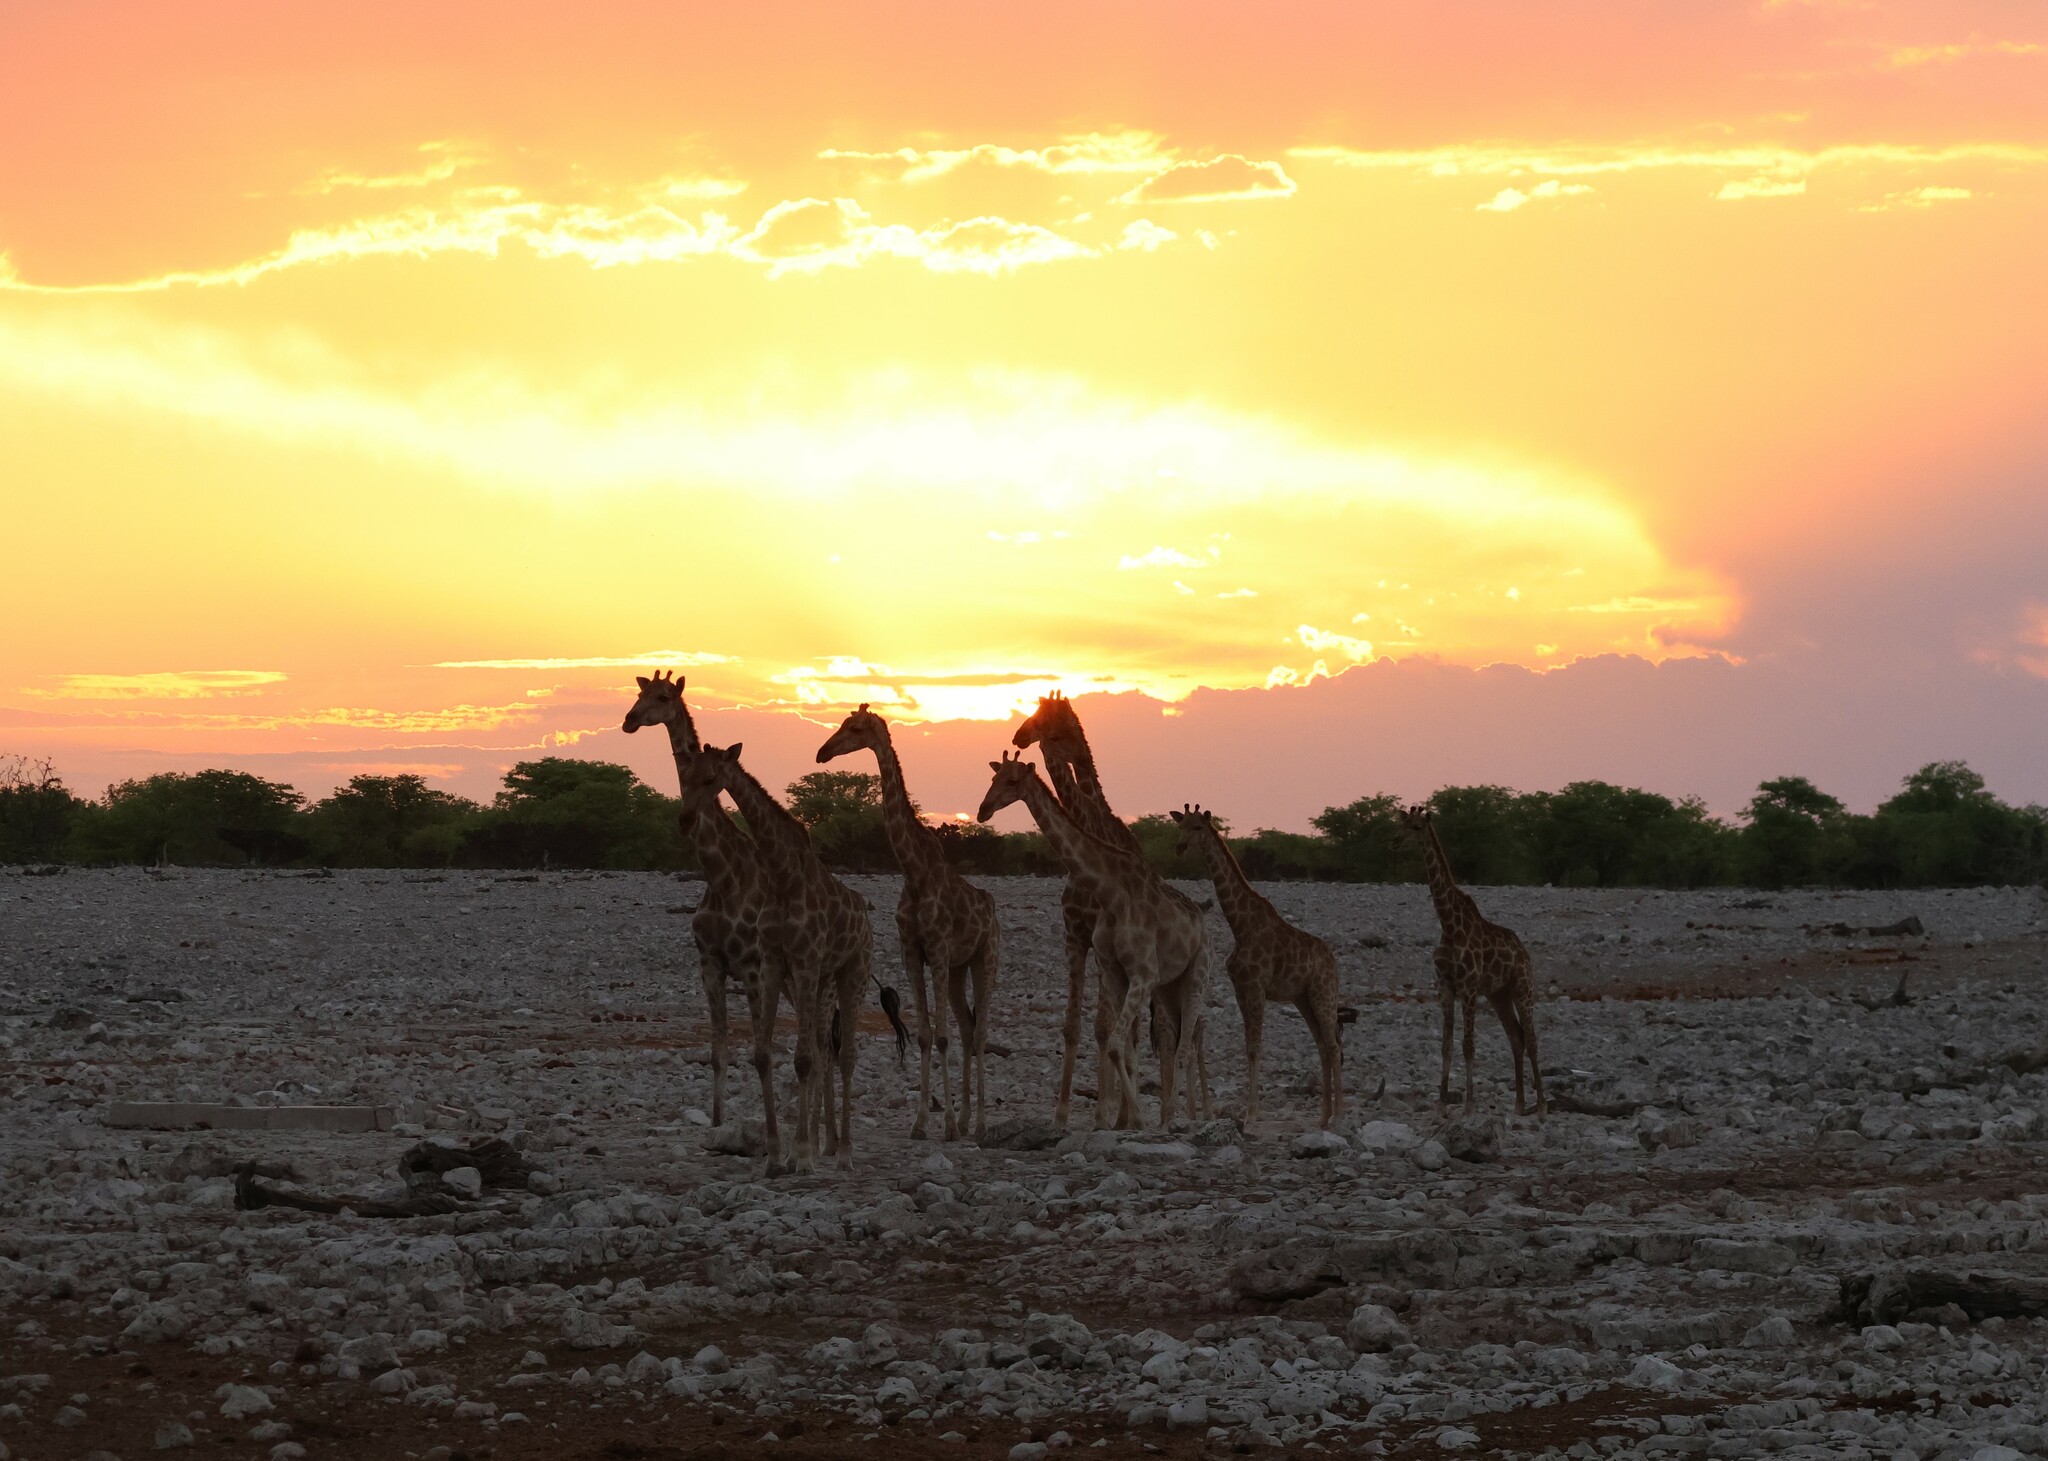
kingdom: Animalia
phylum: Chordata
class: Mammalia
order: Artiodactyla
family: Giraffidae
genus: Giraffa
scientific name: Giraffa giraffa
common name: Southern giraffe
